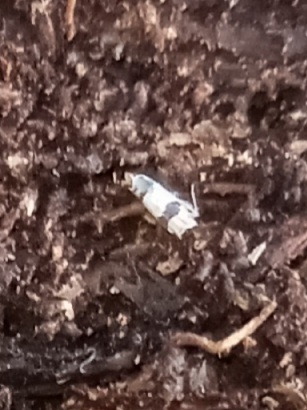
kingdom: Animalia
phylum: Arthropoda
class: Insecta
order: Hemiptera
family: Cicadellidae
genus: Erythroneura
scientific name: Erythroneura tricincta
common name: The threebanded grape leafhopper
